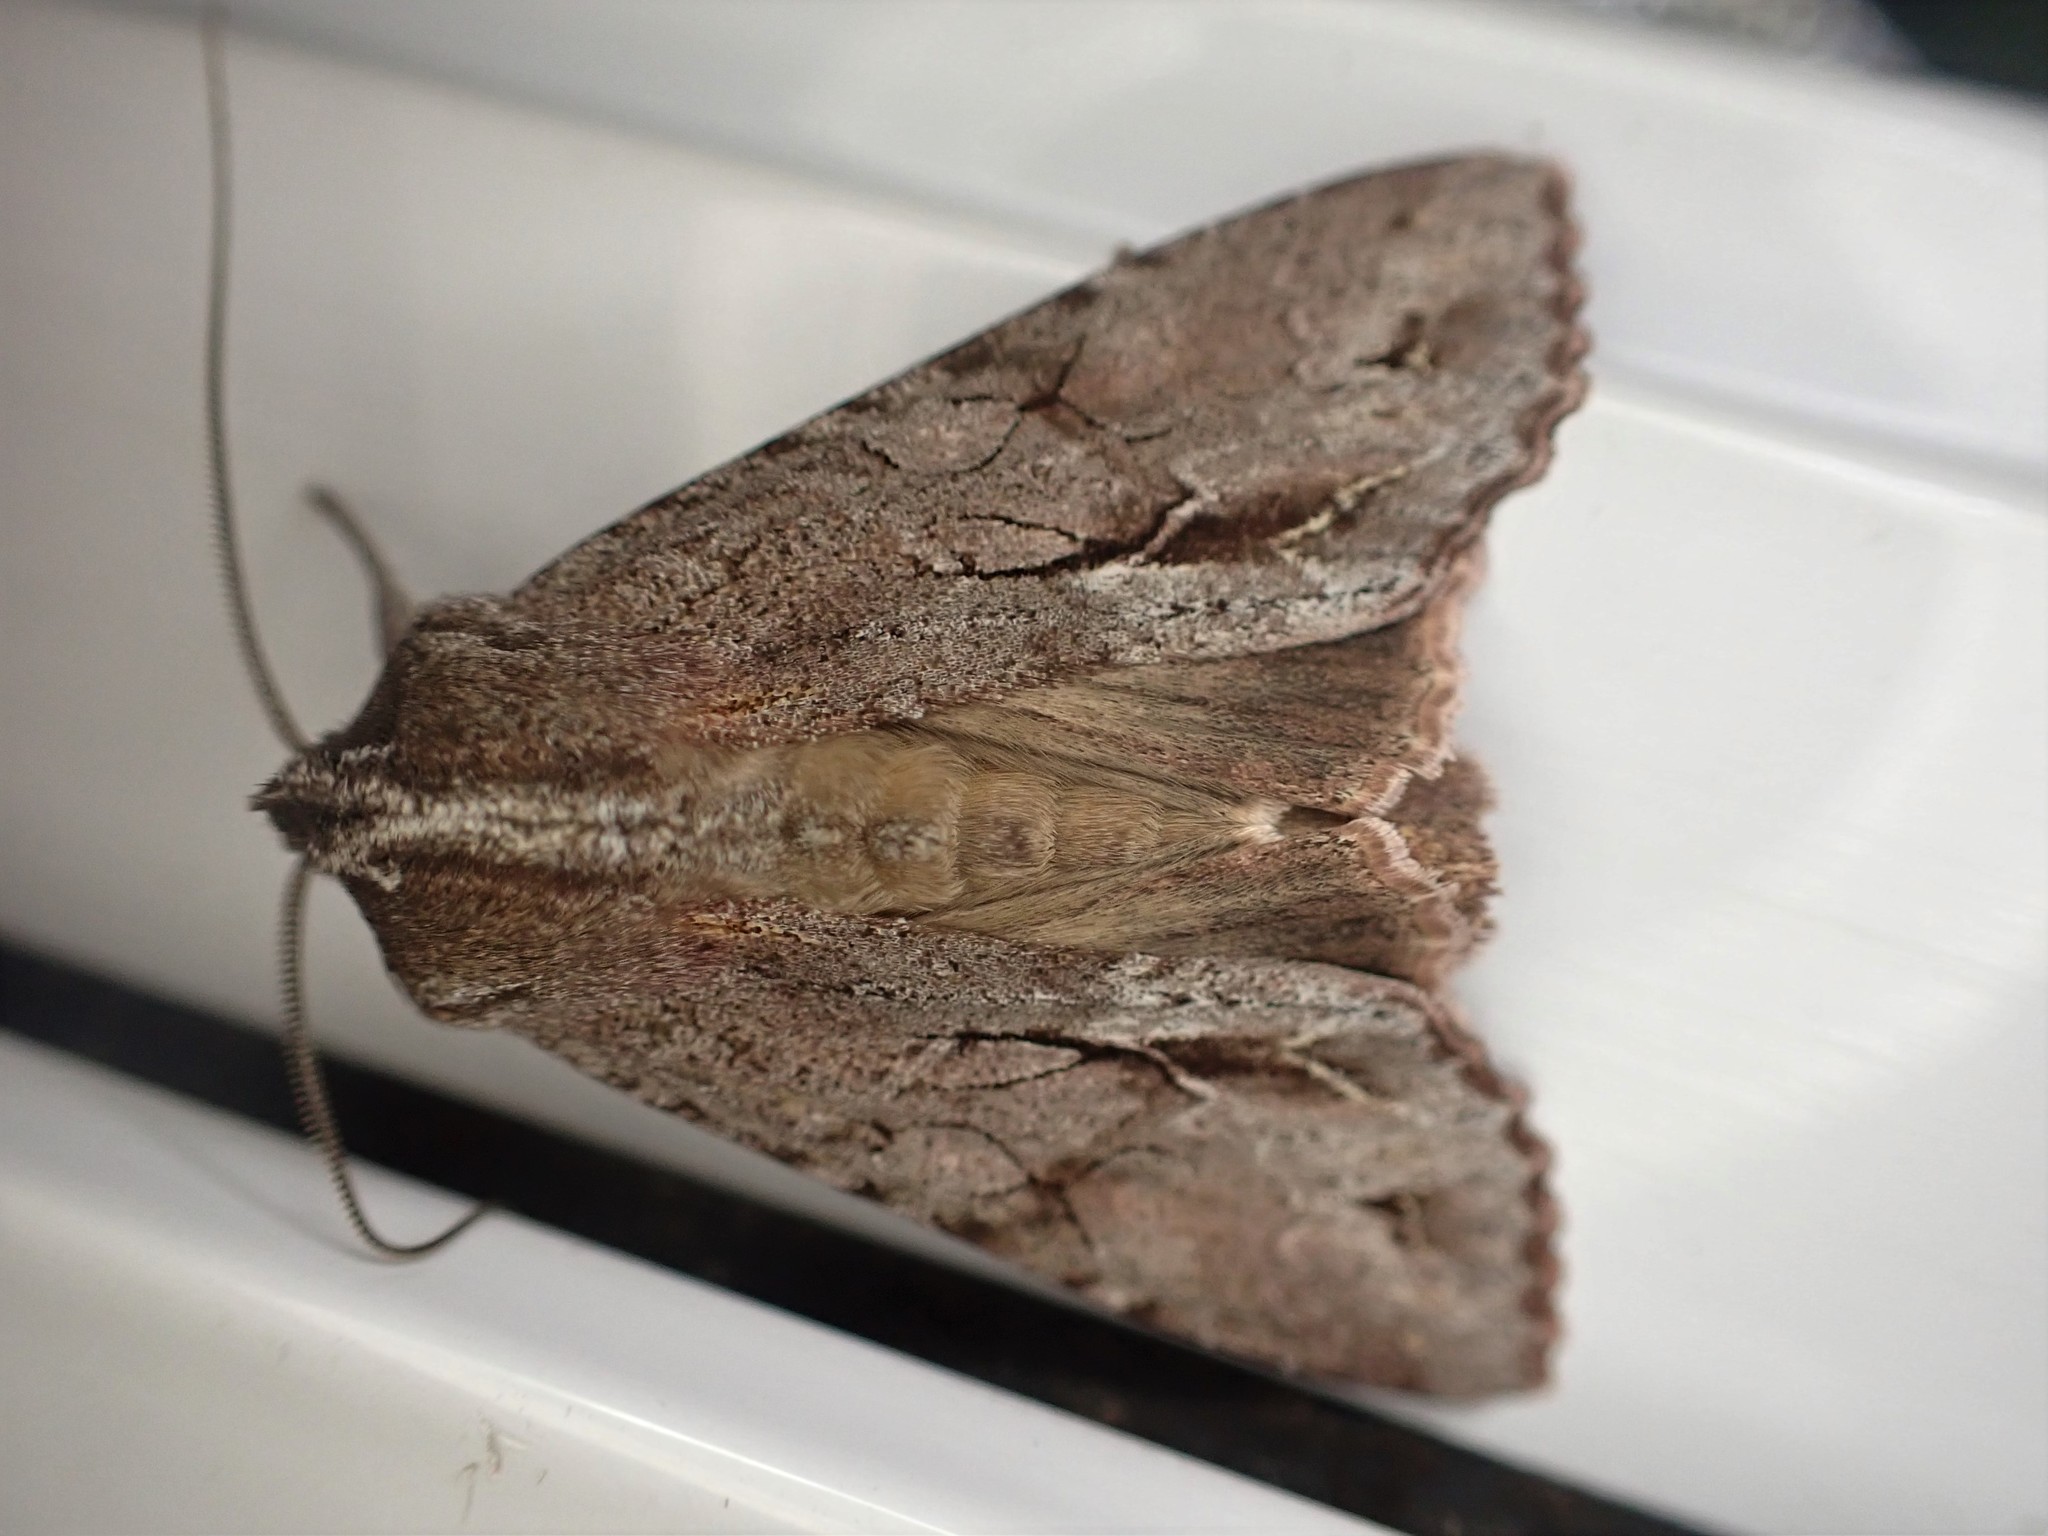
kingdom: Animalia
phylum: Arthropoda
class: Insecta
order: Lepidoptera
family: Noctuidae
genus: Ichneutica
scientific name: Ichneutica
